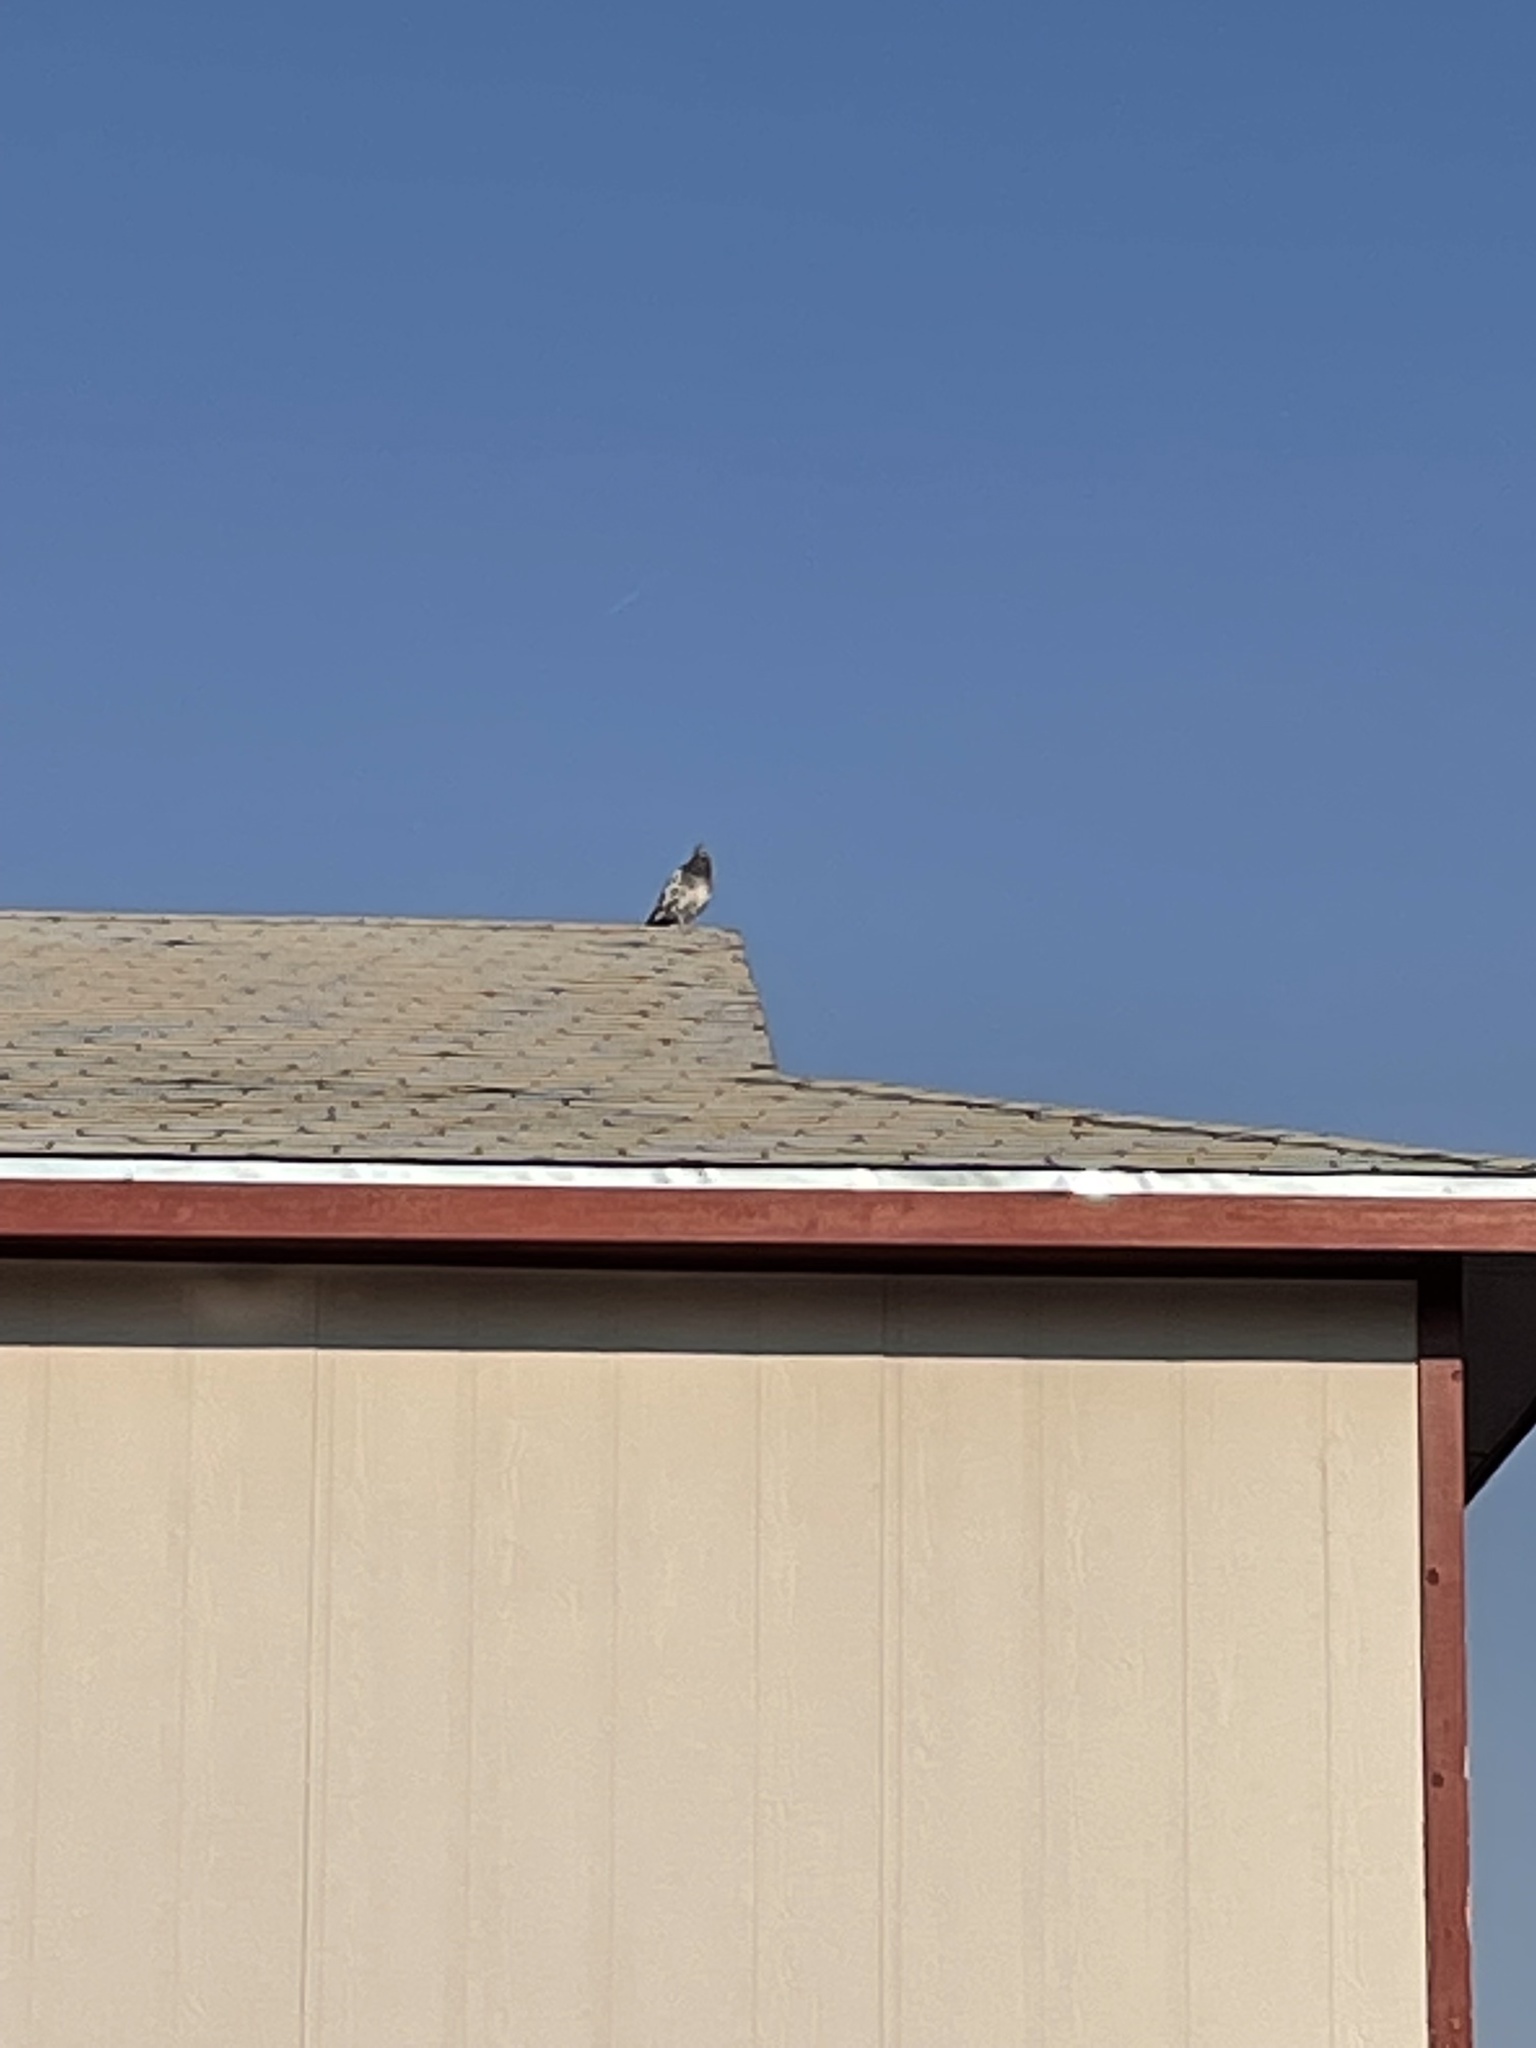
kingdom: Animalia
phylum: Chordata
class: Aves
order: Columbiformes
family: Columbidae
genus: Columba
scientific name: Columba livia
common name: Rock pigeon
